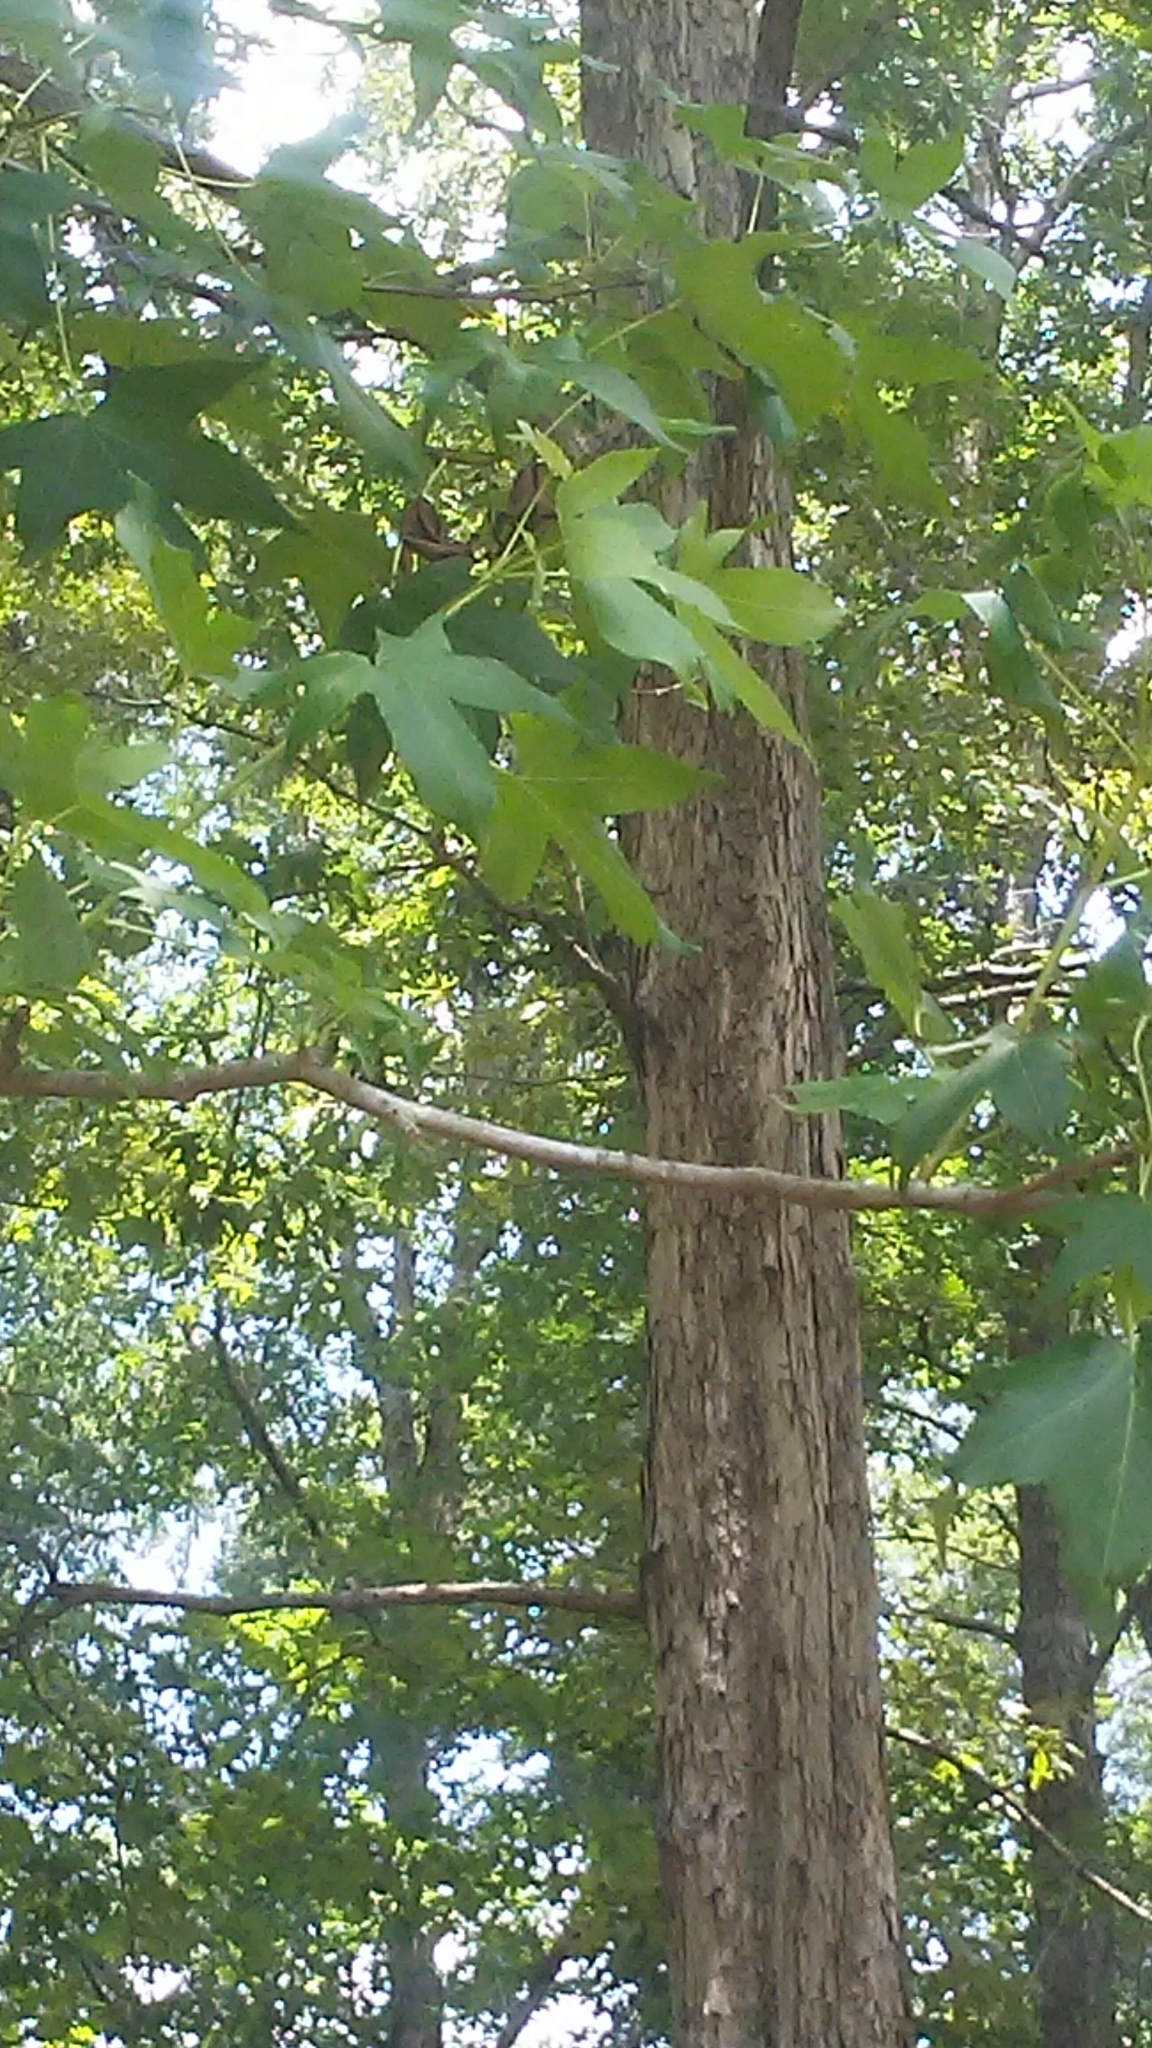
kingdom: Animalia
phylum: Arthropoda
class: Insecta
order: Hymenoptera
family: Formicidae
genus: Camponotus
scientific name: Camponotus pennsylvanicus
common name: Black carpenter ant
